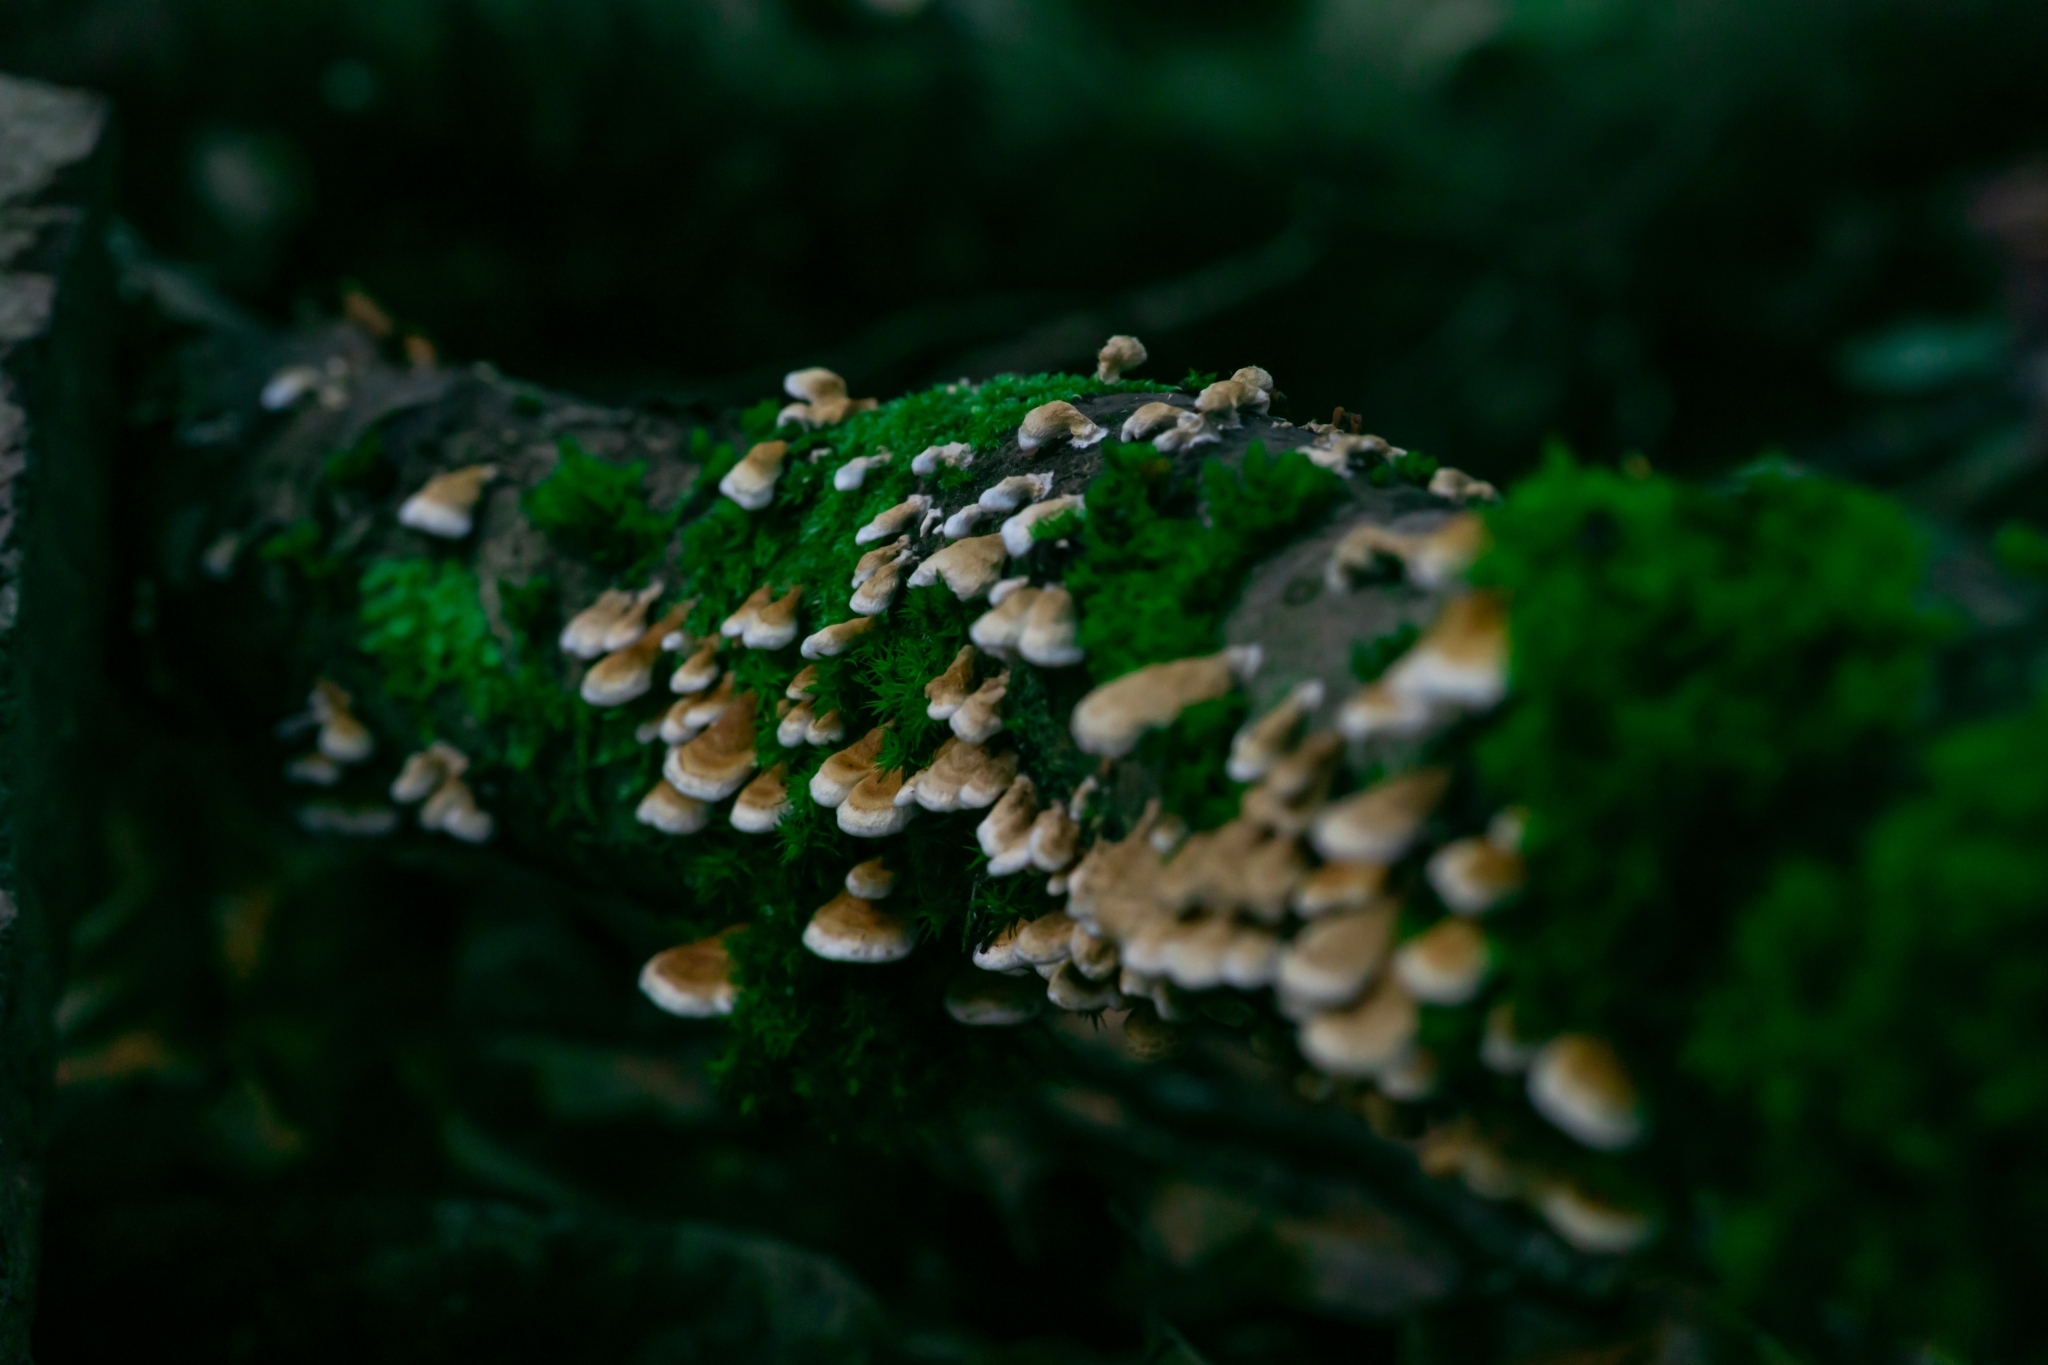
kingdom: Fungi
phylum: Basidiomycota
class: Agaricomycetes
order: Amylocorticiales
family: Amylocorticiaceae
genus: Plicaturopsis
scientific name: Plicaturopsis crispa
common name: Crimped gill
